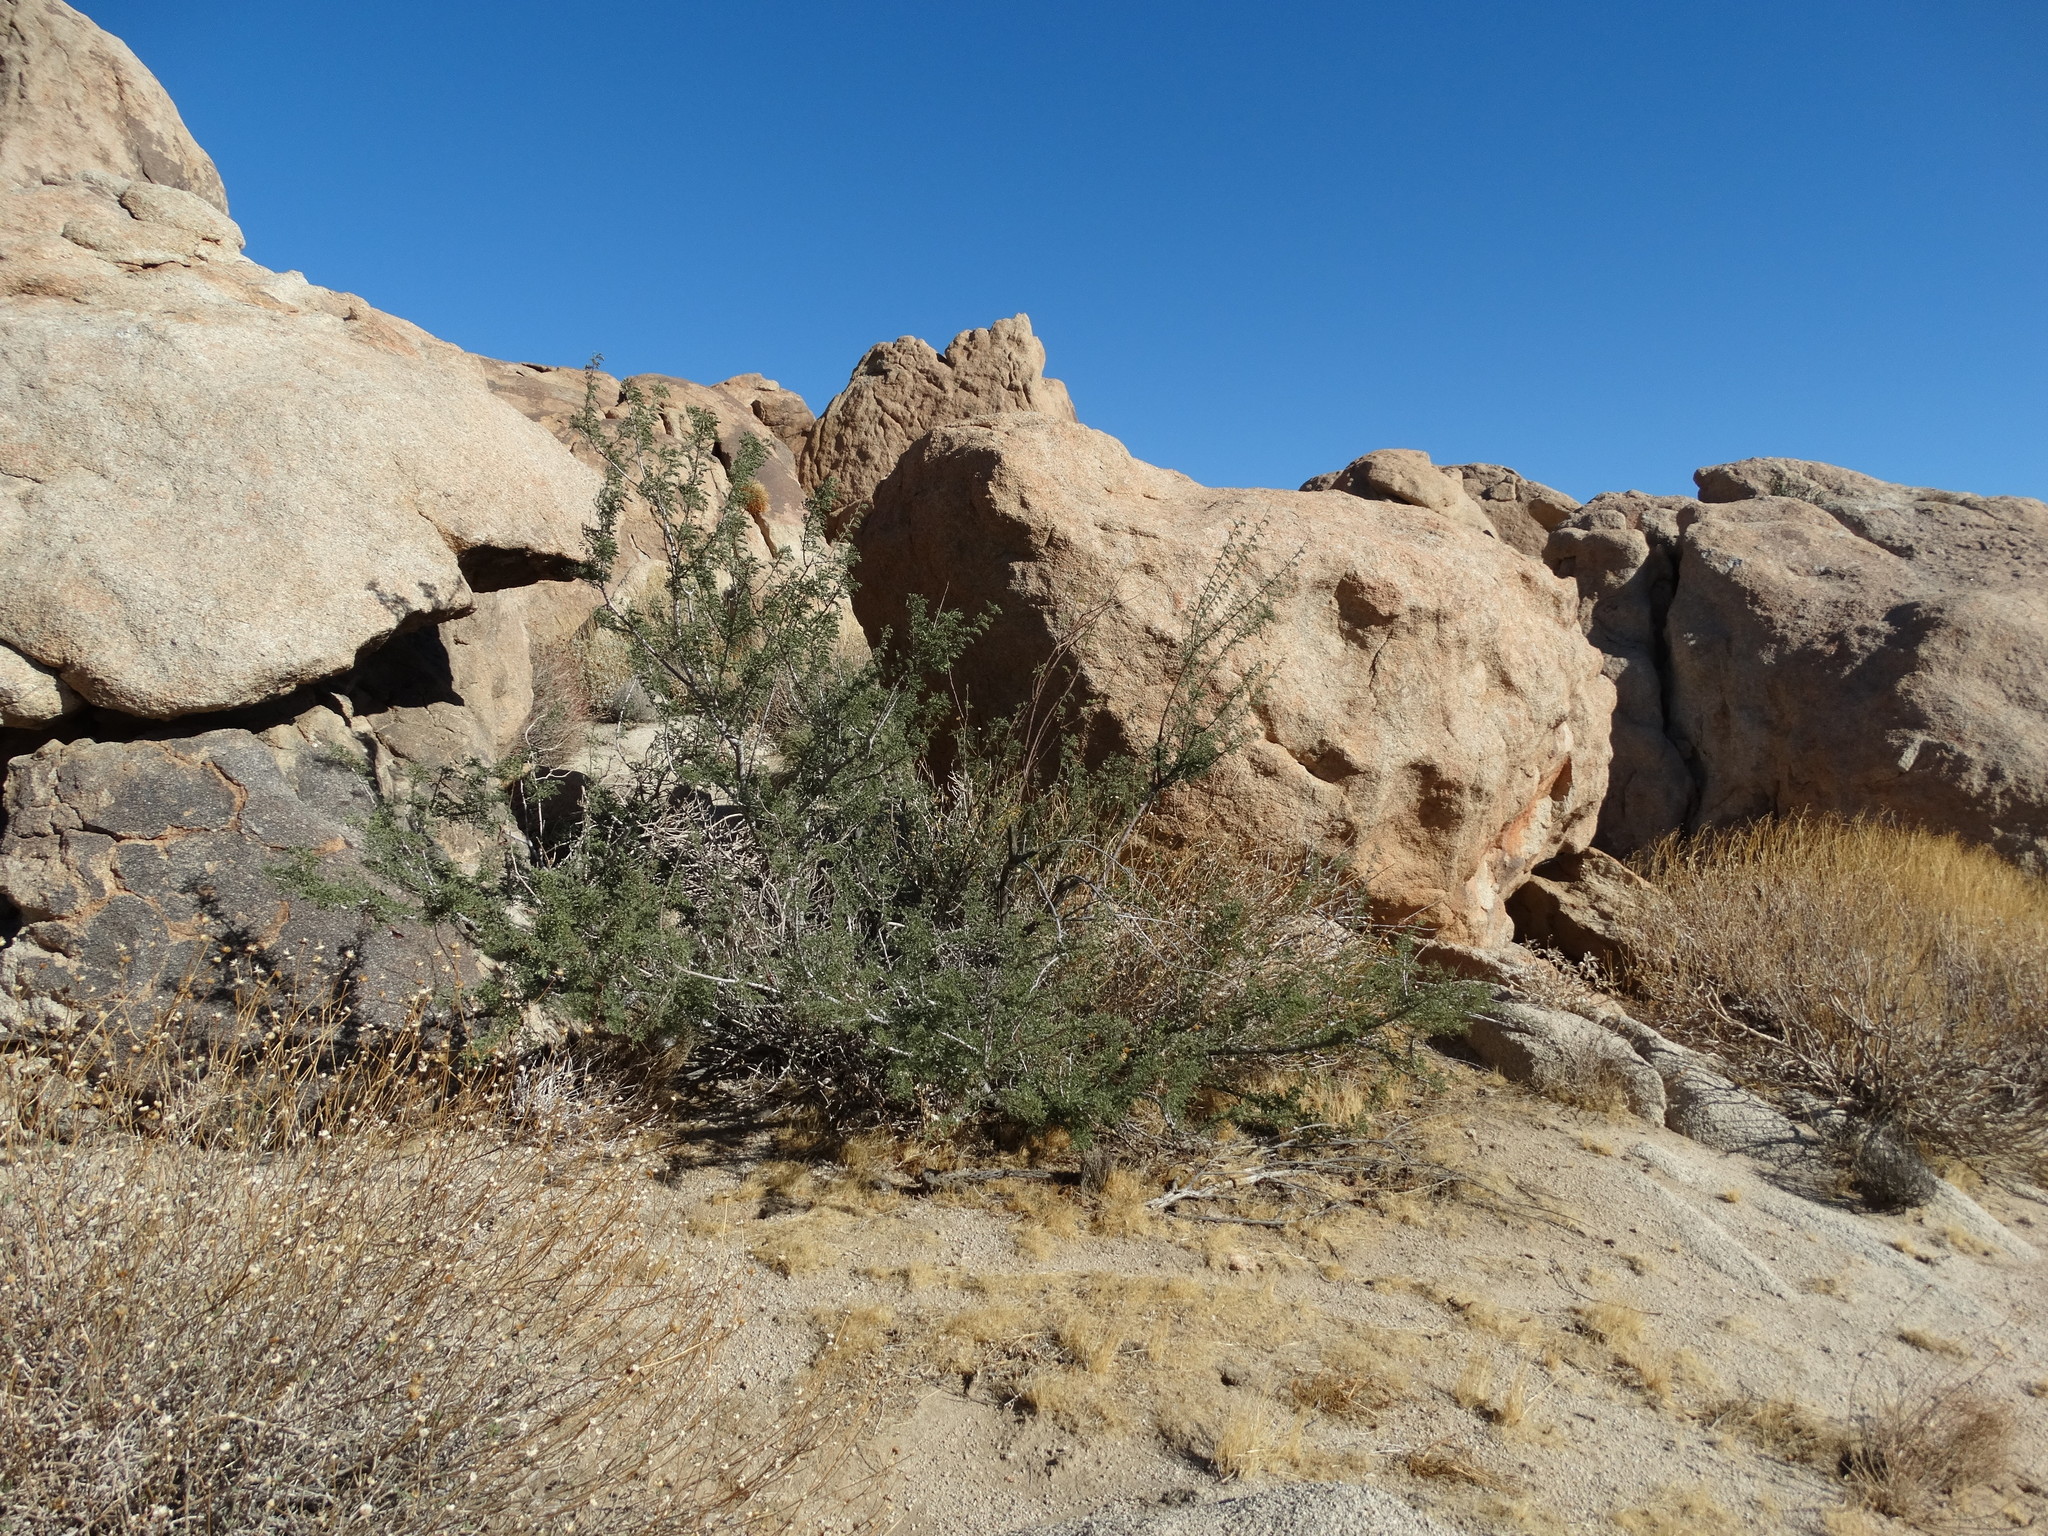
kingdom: Plantae
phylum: Tracheophyta
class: Magnoliopsida
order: Fabales
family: Fabaceae
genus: Senegalia
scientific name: Senegalia greggii
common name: Texas-mimosa
